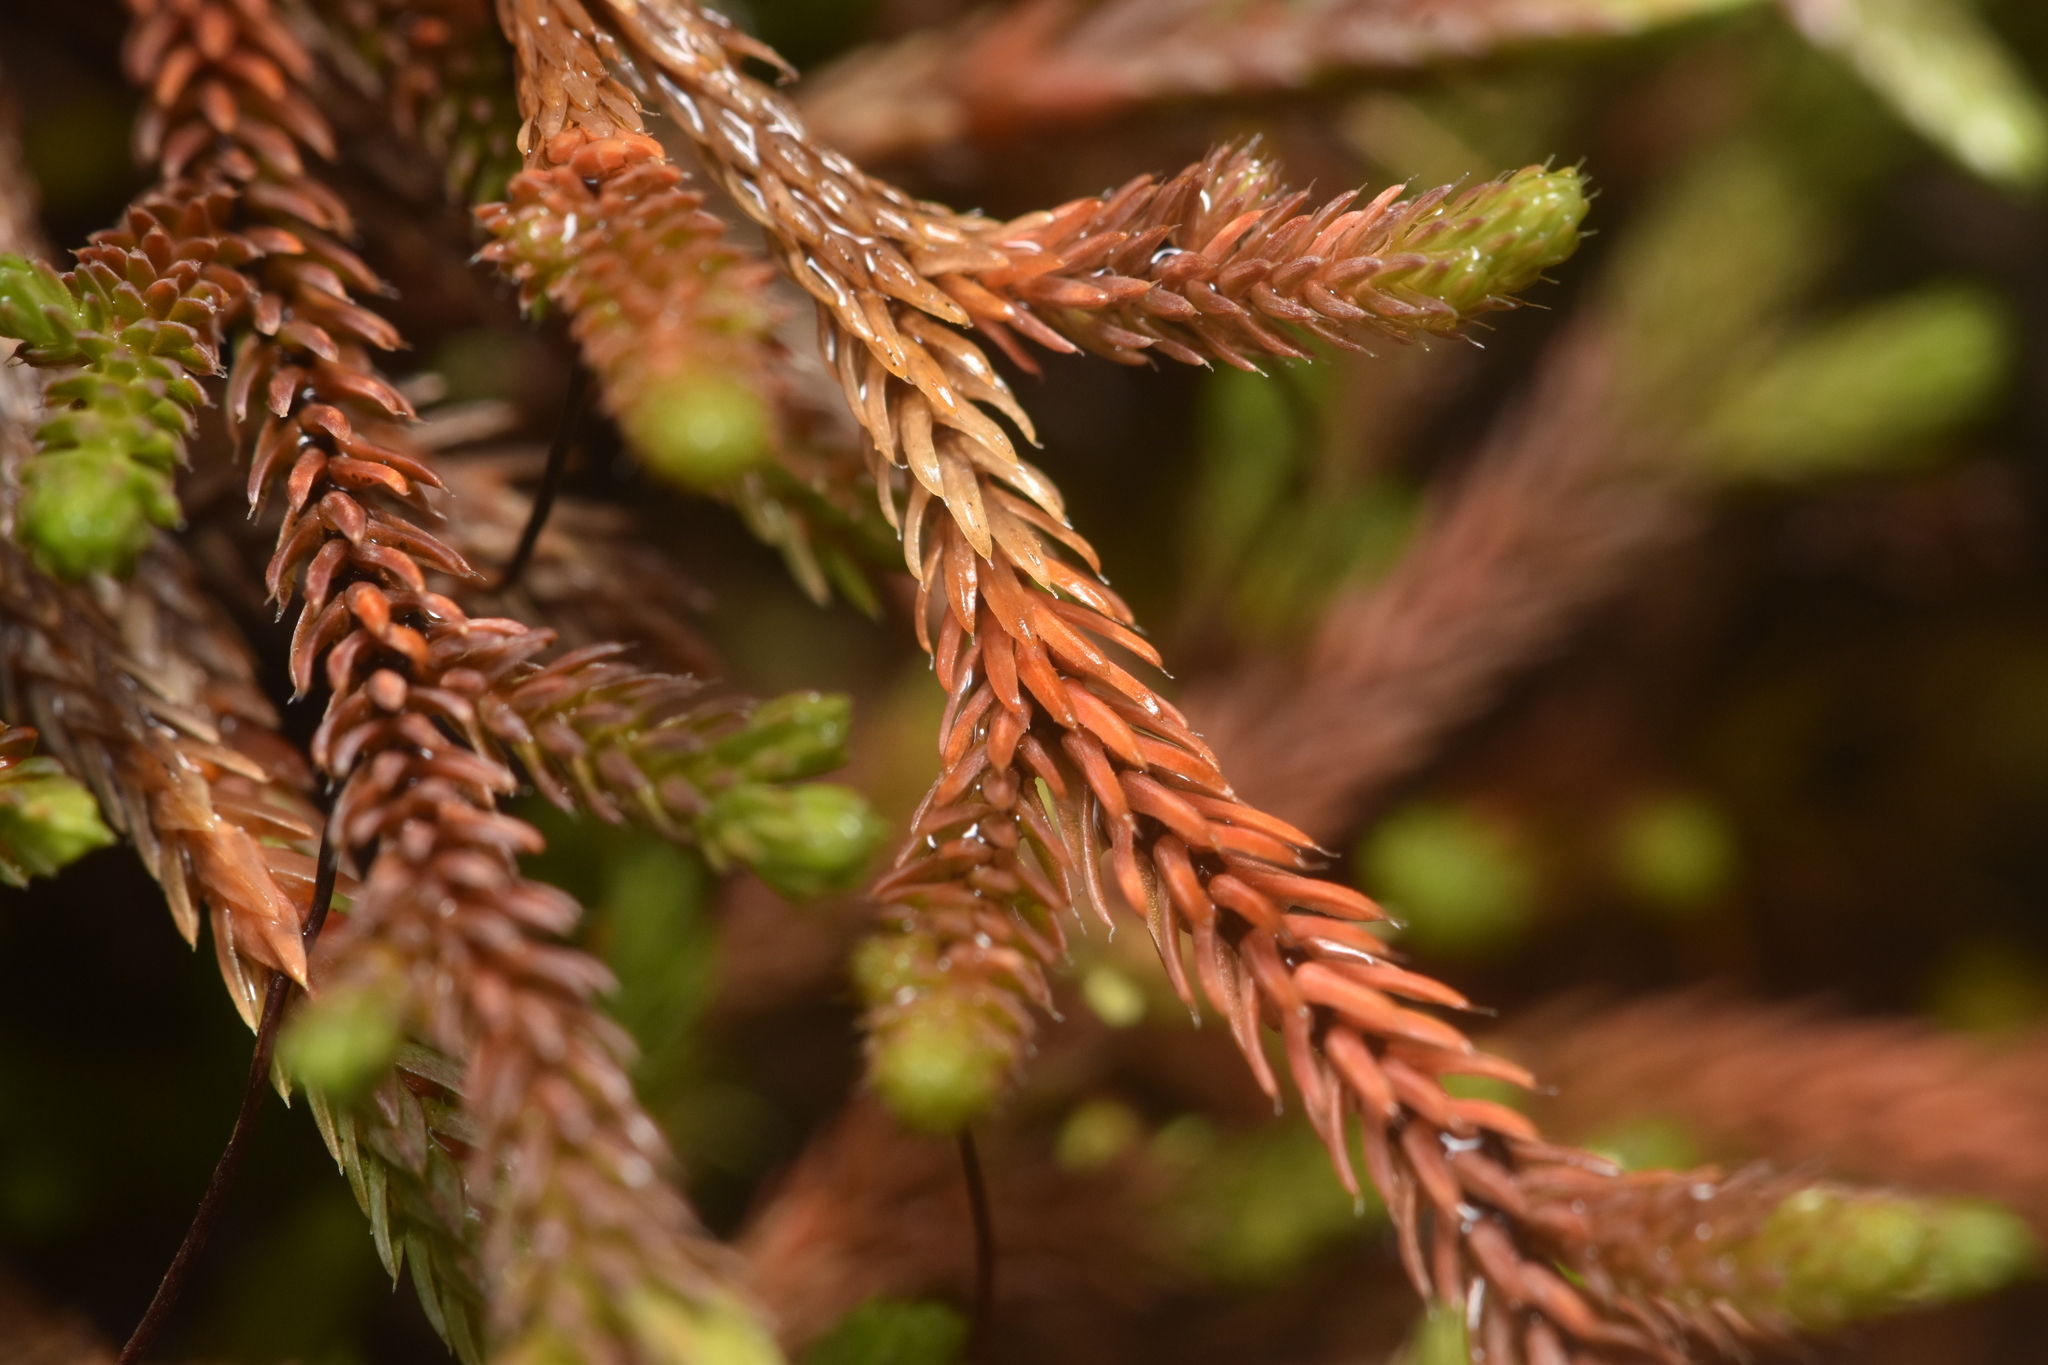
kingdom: Plantae
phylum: Tracheophyta
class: Lycopodiopsida
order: Selaginellales
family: Selaginellaceae
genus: Selaginella
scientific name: Selaginella wallacei
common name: Wallace's selaginella
